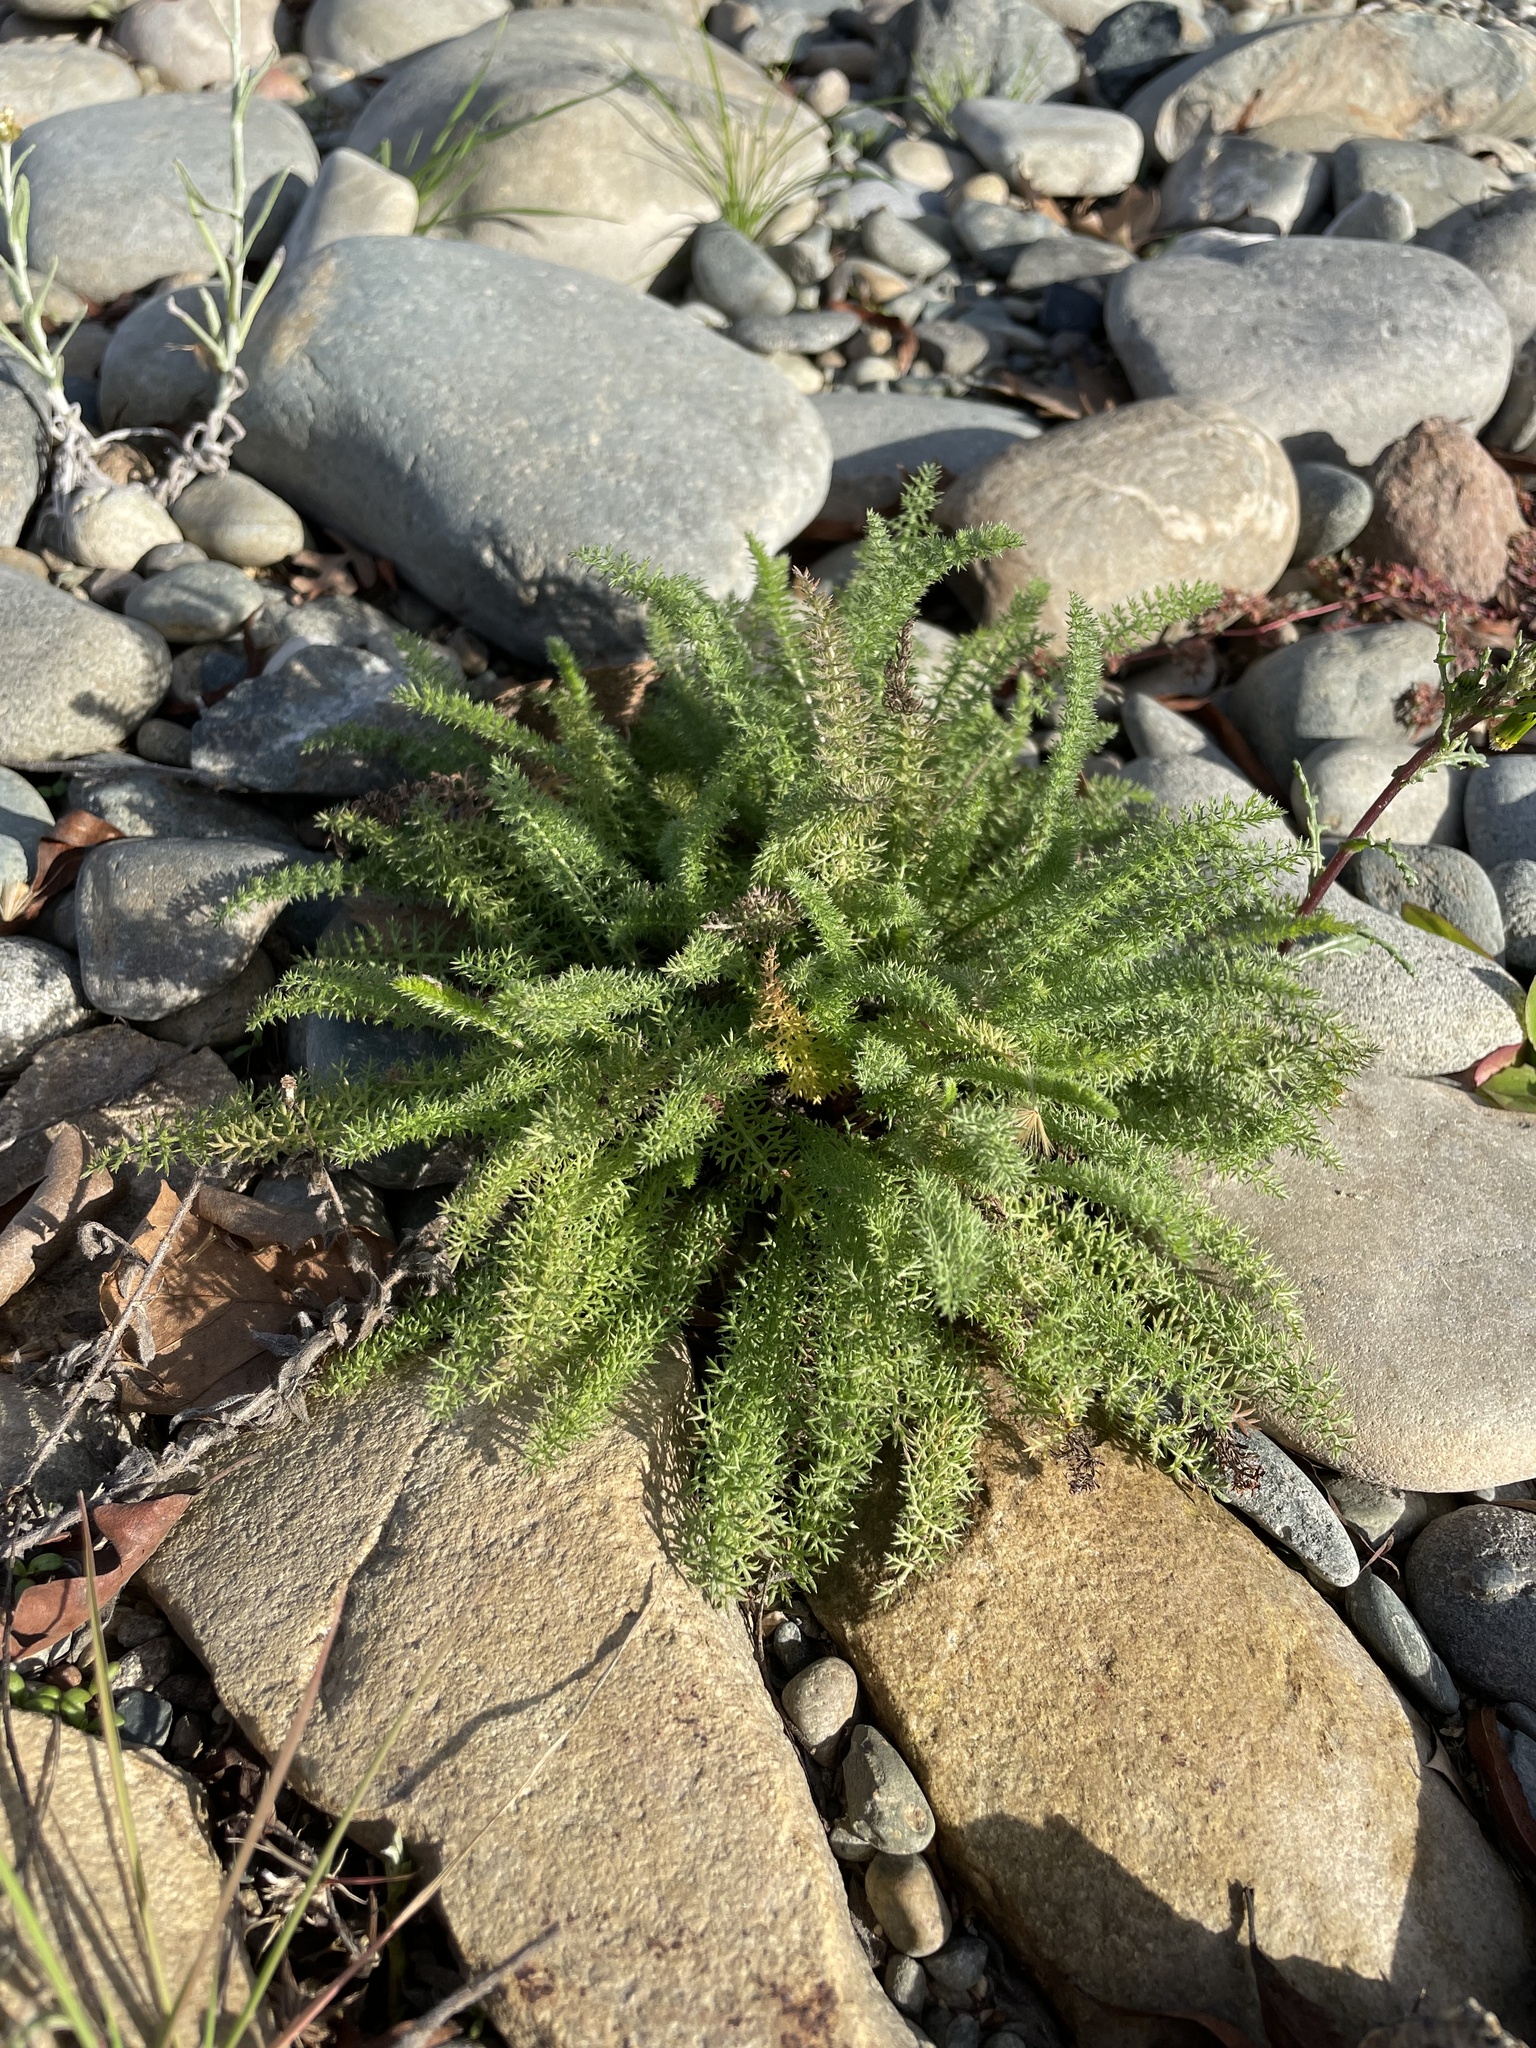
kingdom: Plantae
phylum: Tracheophyta
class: Magnoliopsida
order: Asterales
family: Asteraceae
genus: Achillea
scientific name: Achillea millefolium
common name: Yarrow
